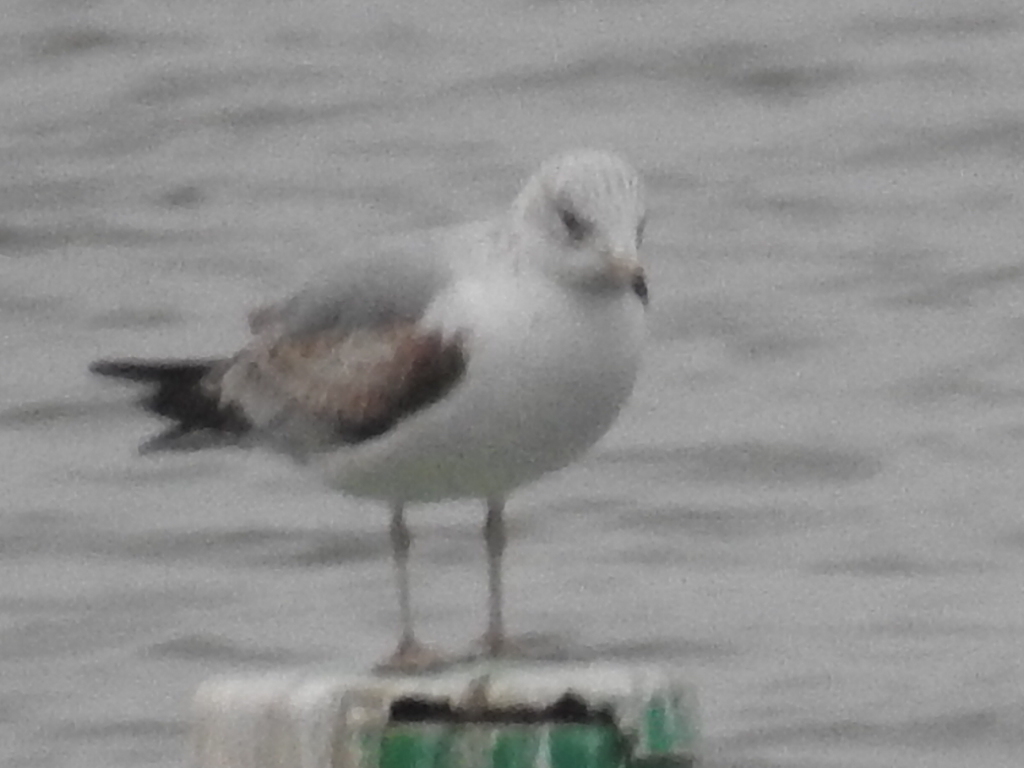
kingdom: Animalia
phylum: Chordata
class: Aves
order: Charadriiformes
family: Laridae
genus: Larus
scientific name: Larus delawarensis
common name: Ring-billed gull
